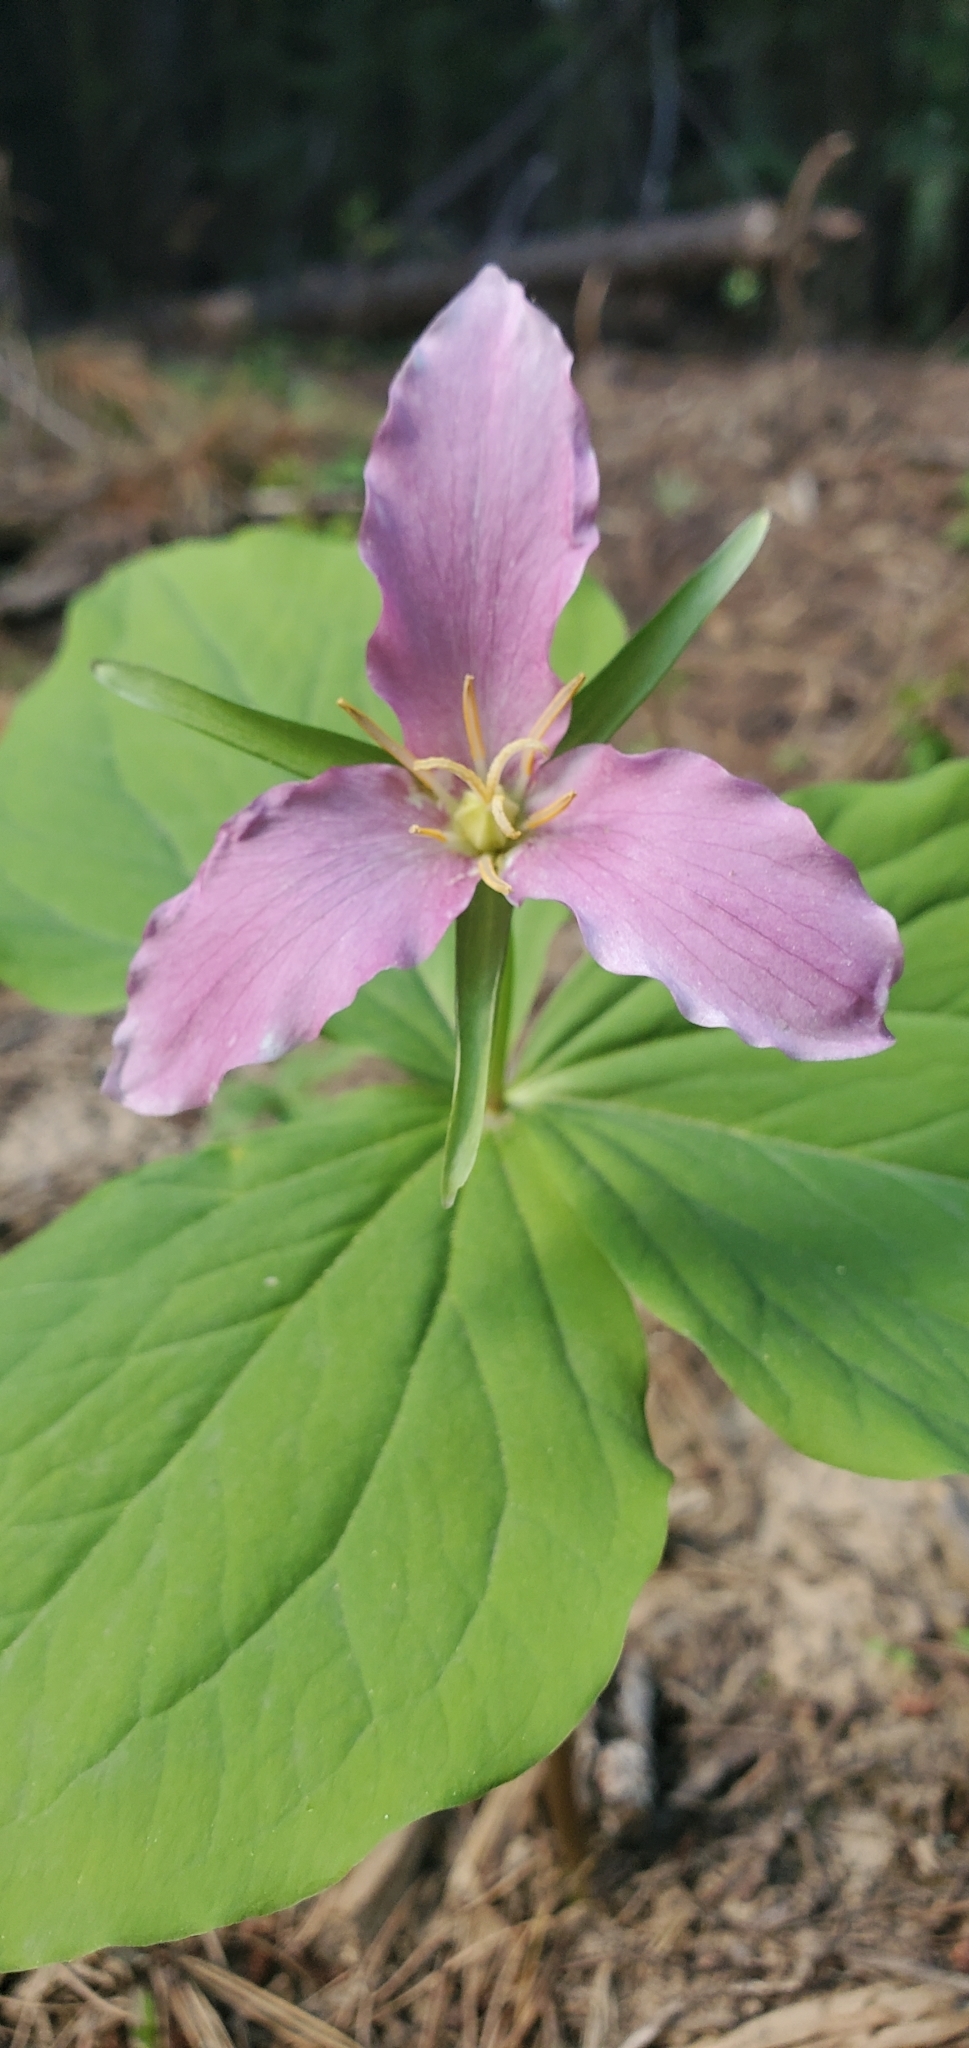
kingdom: Plantae
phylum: Tracheophyta
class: Liliopsida
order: Liliales
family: Melanthiaceae
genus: Trillium
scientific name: Trillium ovatum
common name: Pacific trillium
